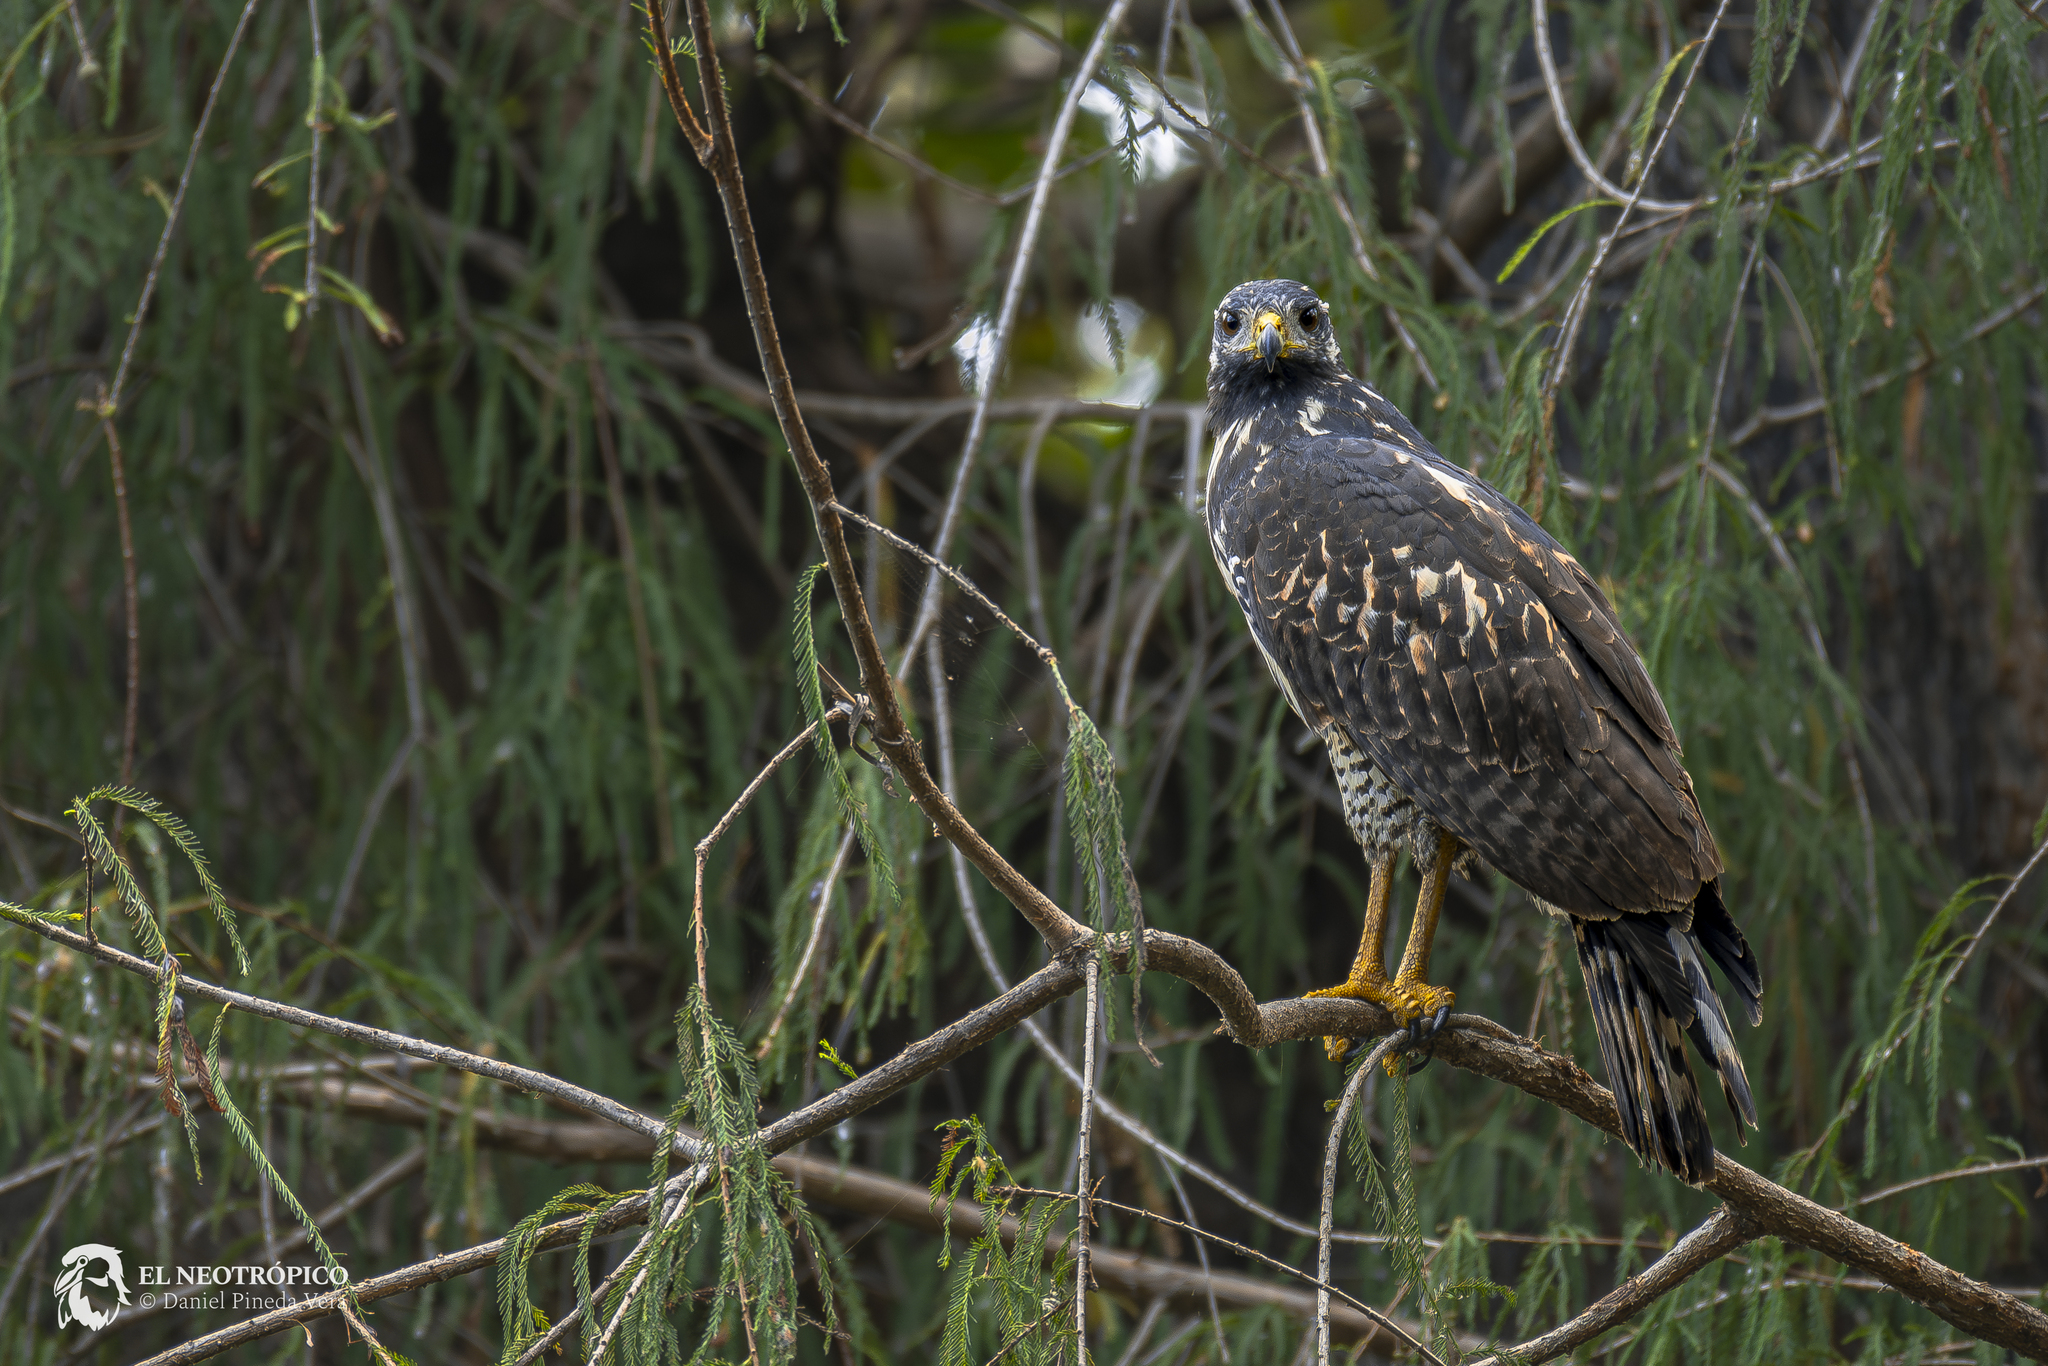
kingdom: Animalia
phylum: Chordata
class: Aves
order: Accipitriformes
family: Accipitridae
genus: Buteogallus
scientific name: Buteogallus anthracinus
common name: Common black hawk
